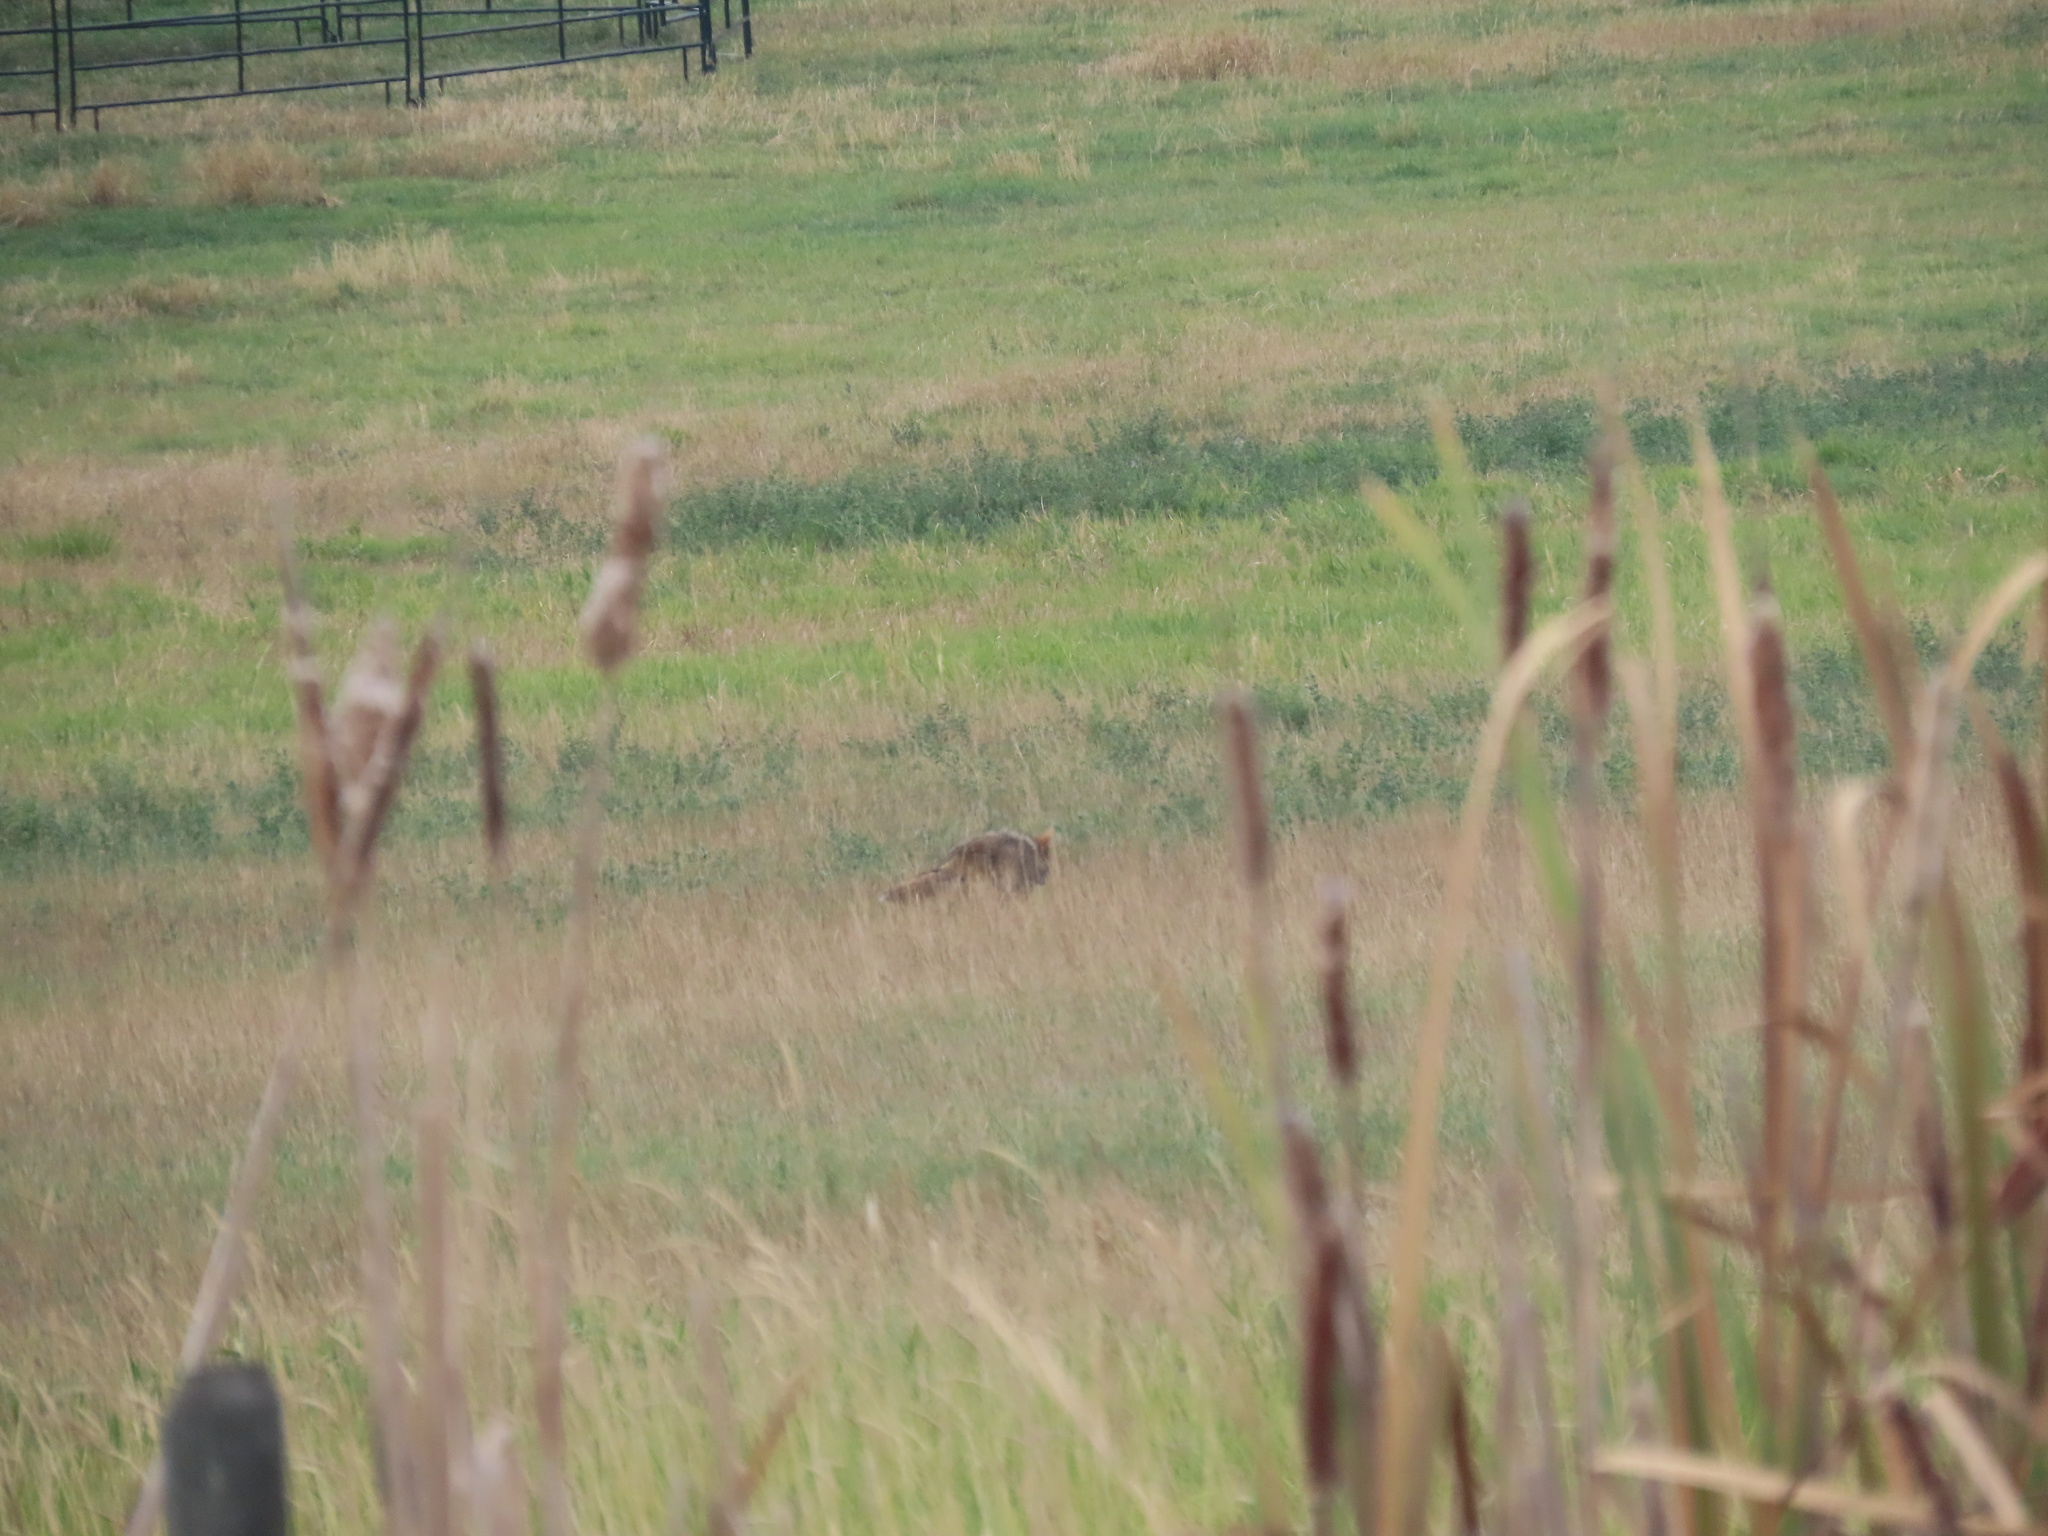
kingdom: Animalia
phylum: Chordata
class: Mammalia
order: Carnivora
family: Canidae
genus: Canis
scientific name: Canis latrans
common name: Coyote
